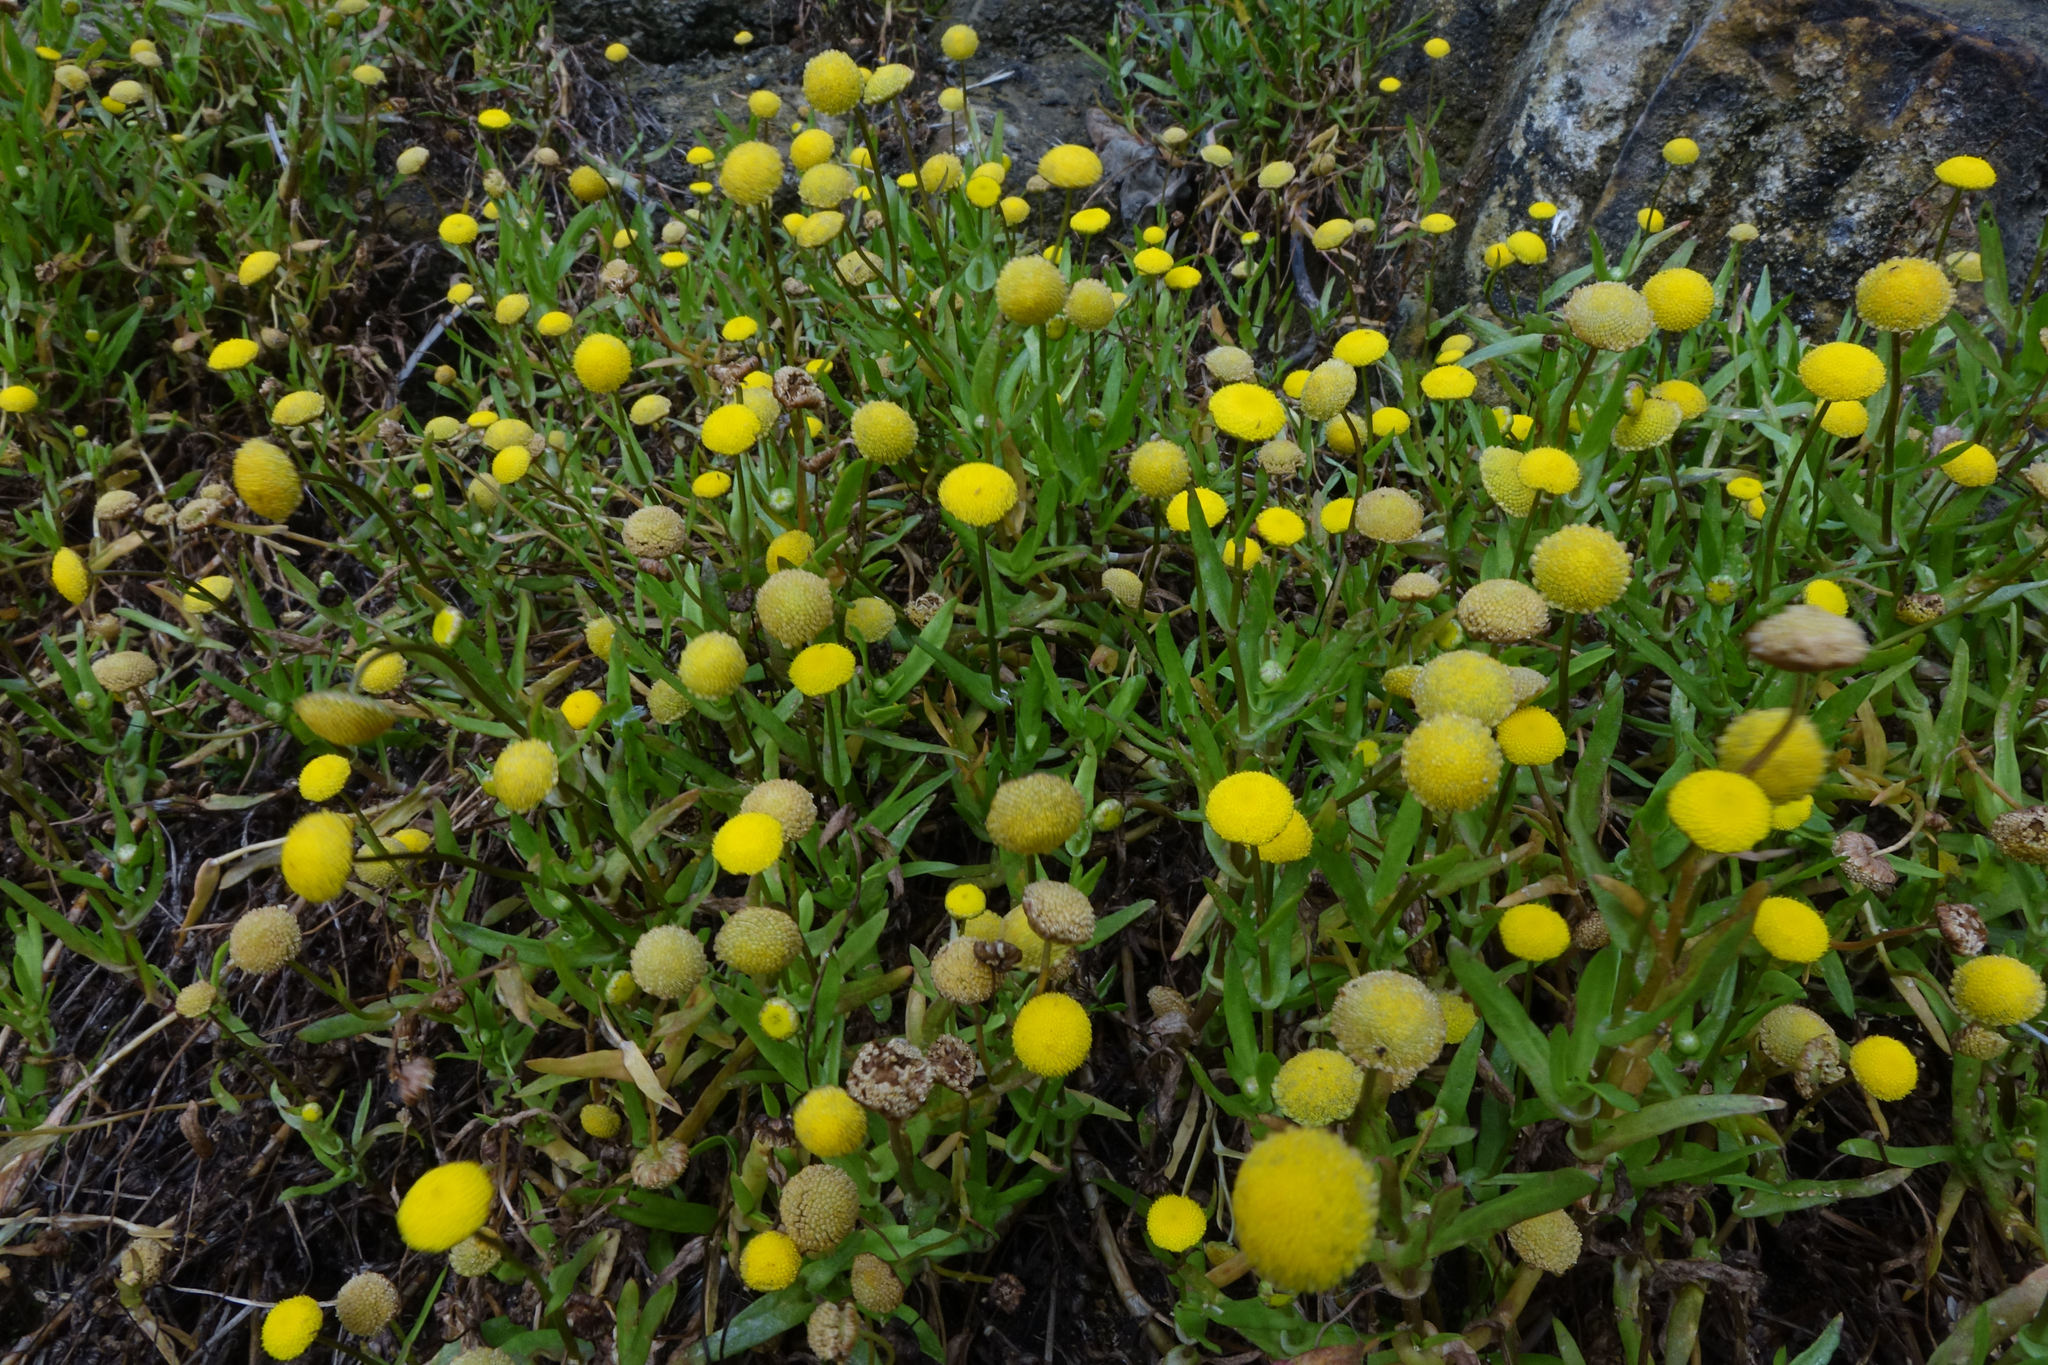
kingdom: Plantae
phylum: Tracheophyta
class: Magnoliopsida
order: Asterales
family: Asteraceae
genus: Cotula
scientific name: Cotula coronopifolia
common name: Buttonweed
